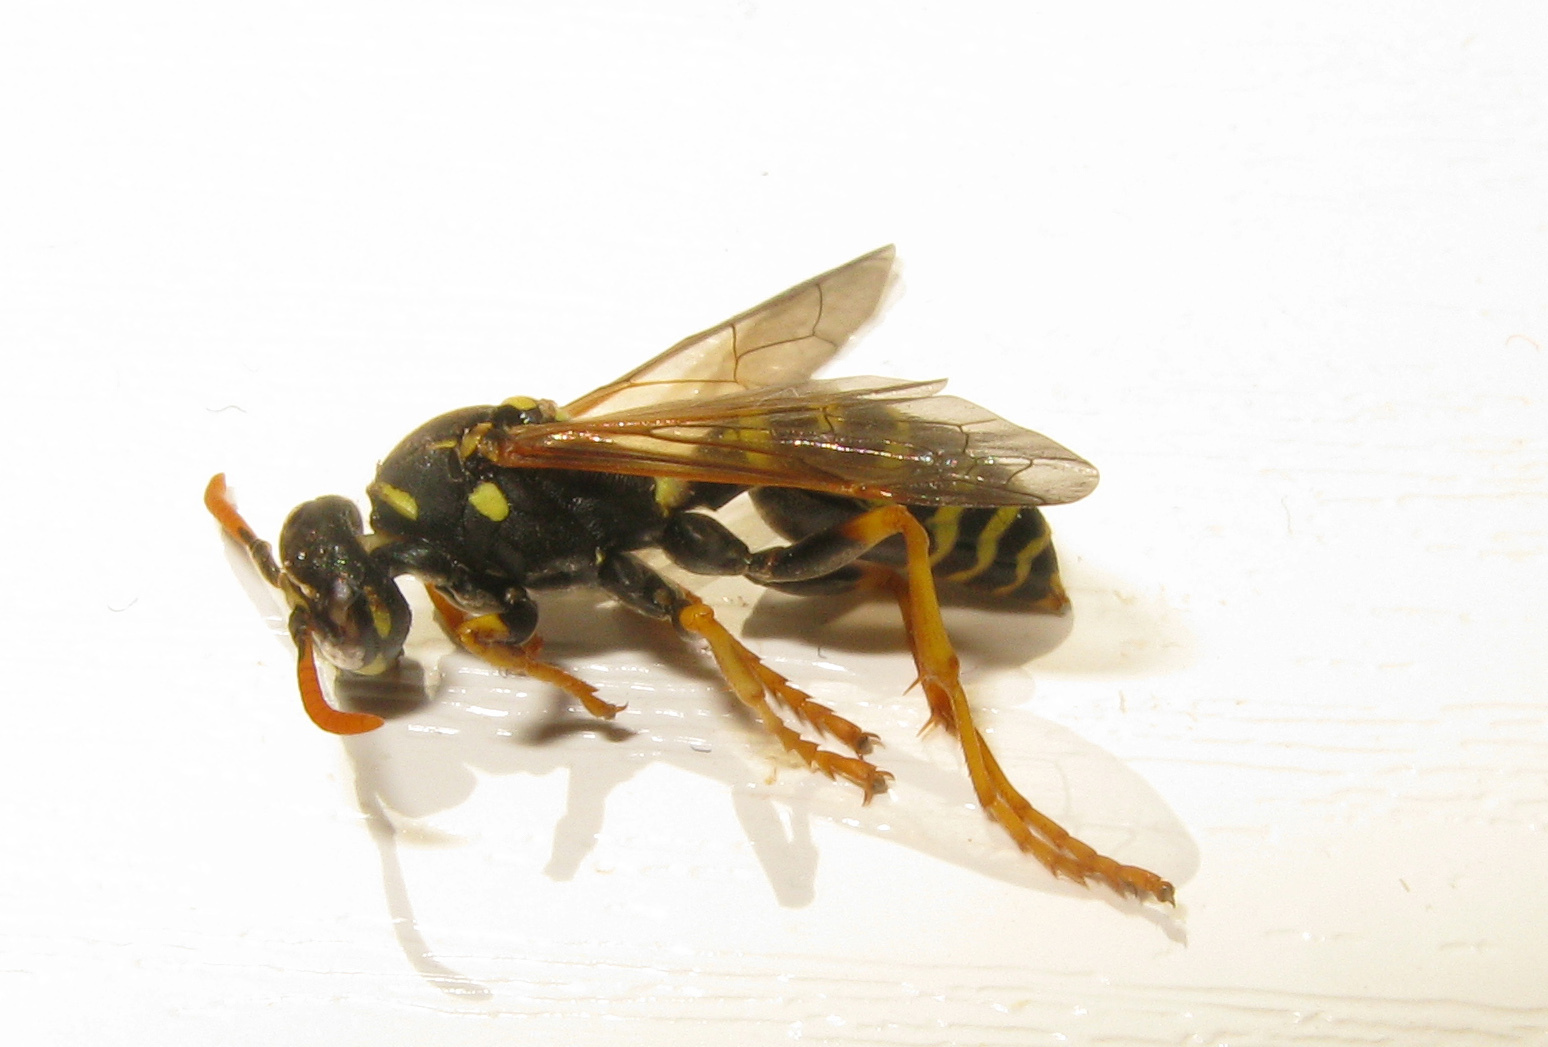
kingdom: Animalia
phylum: Arthropoda
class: Insecta
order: Hymenoptera
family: Eumenidae
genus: Polistes
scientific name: Polistes dominula
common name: Paper wasp
